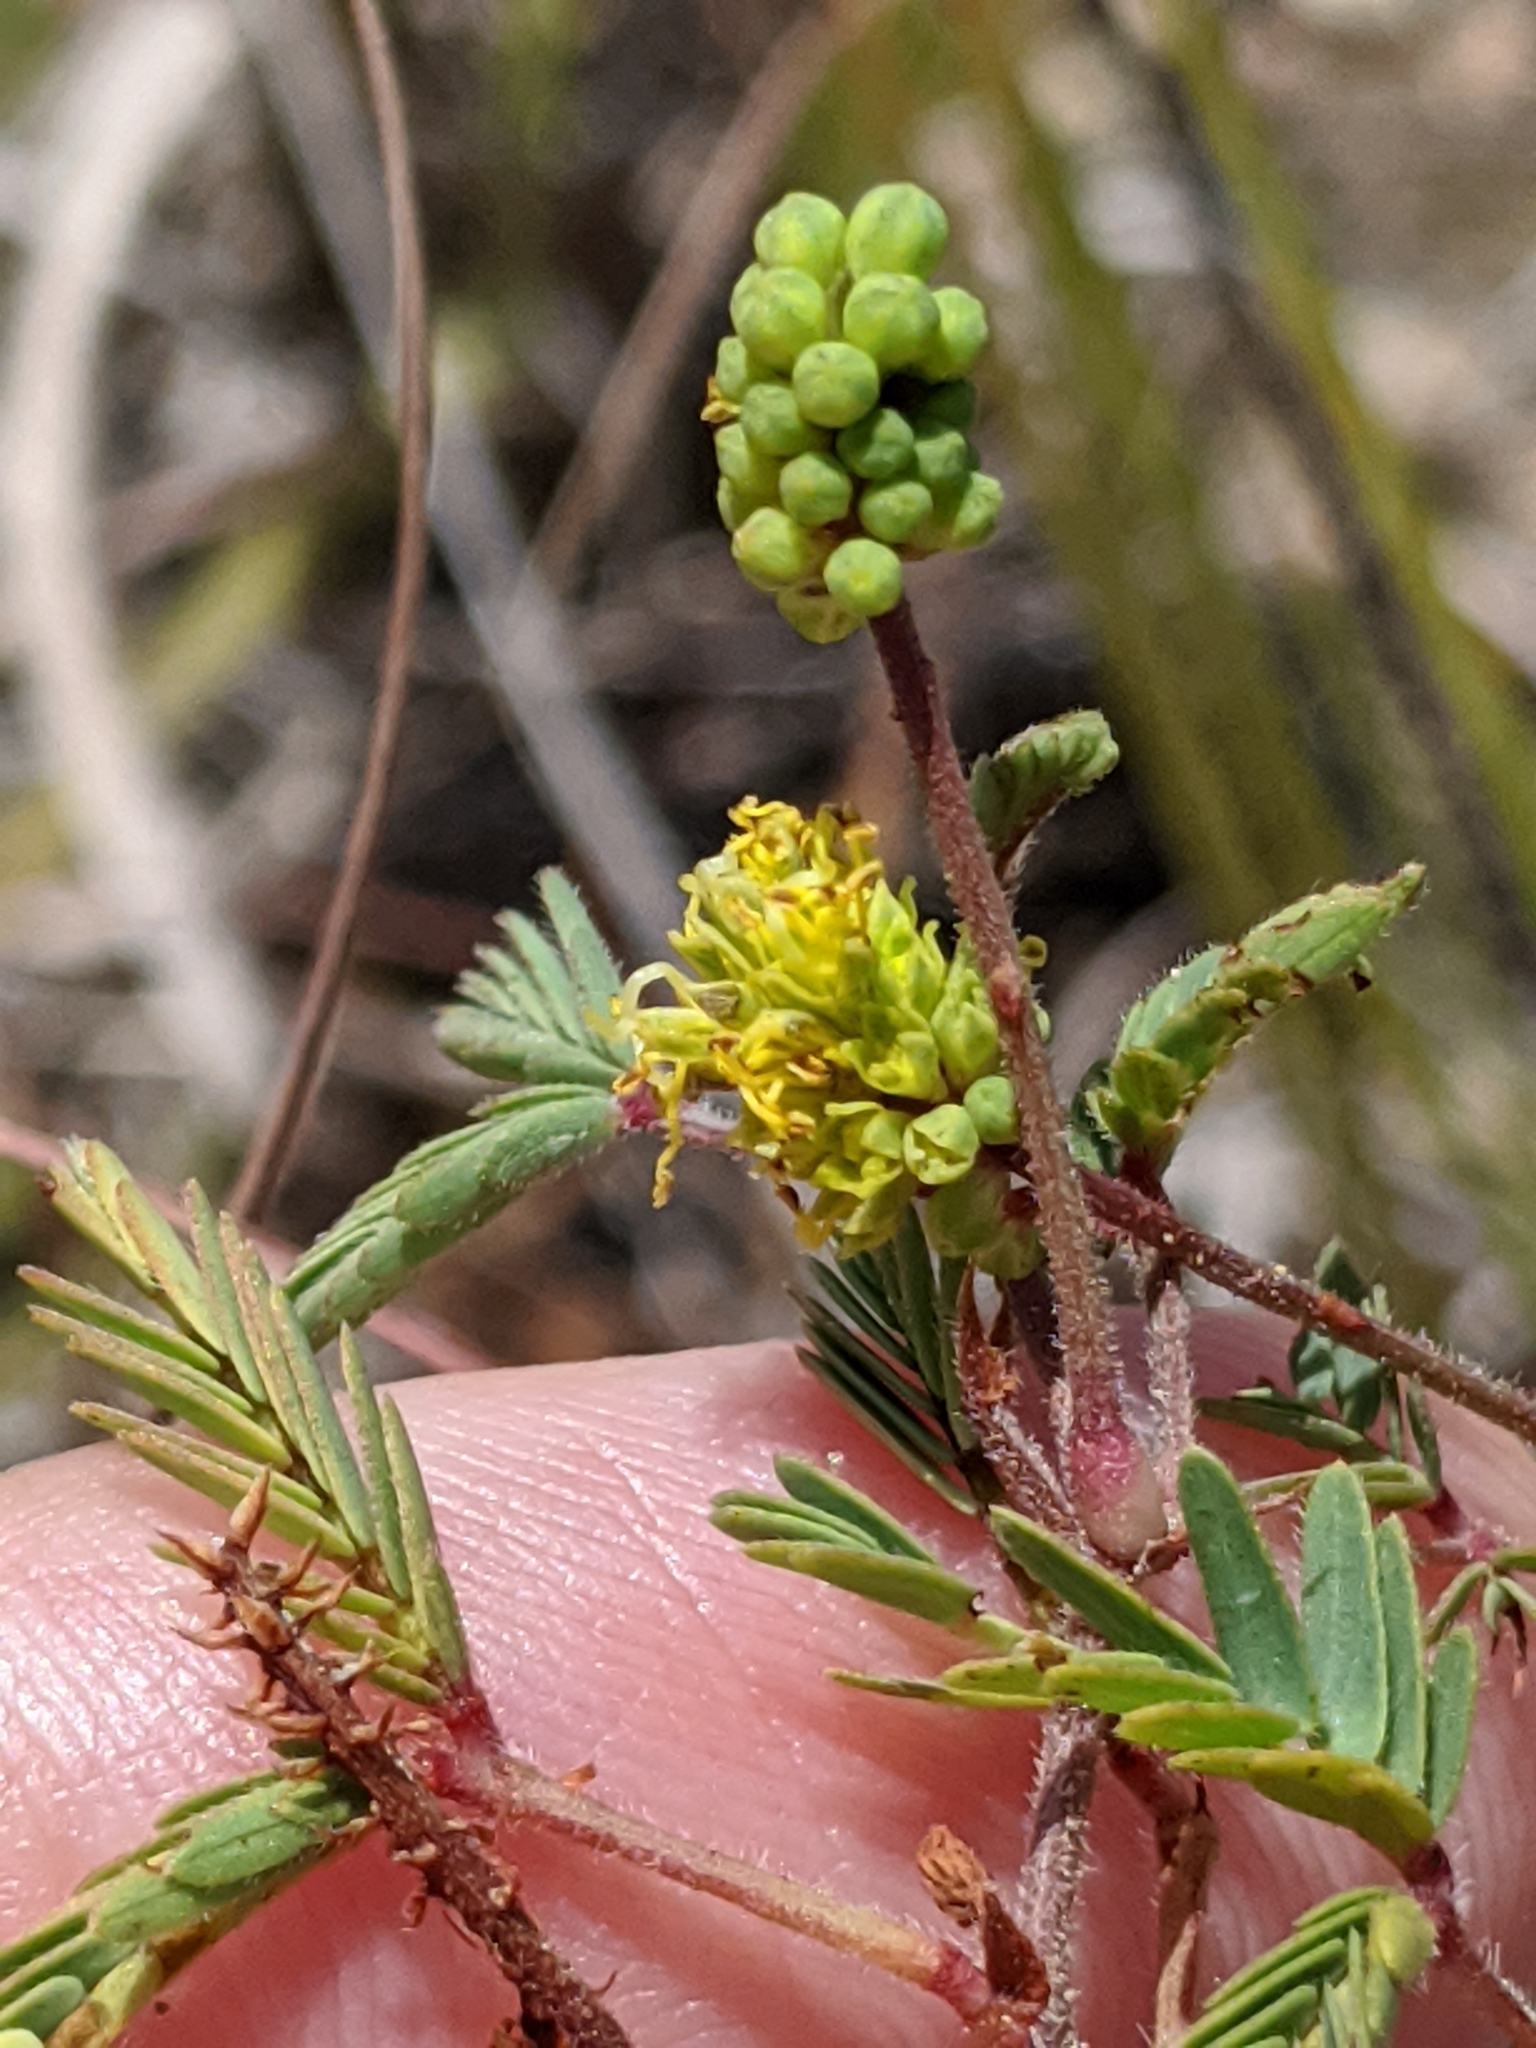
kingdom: Plantae
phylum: Tracheophyta
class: Magnoliopsida
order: Fabales
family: Fabaceae
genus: Neptunia
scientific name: Neptunia lutea
